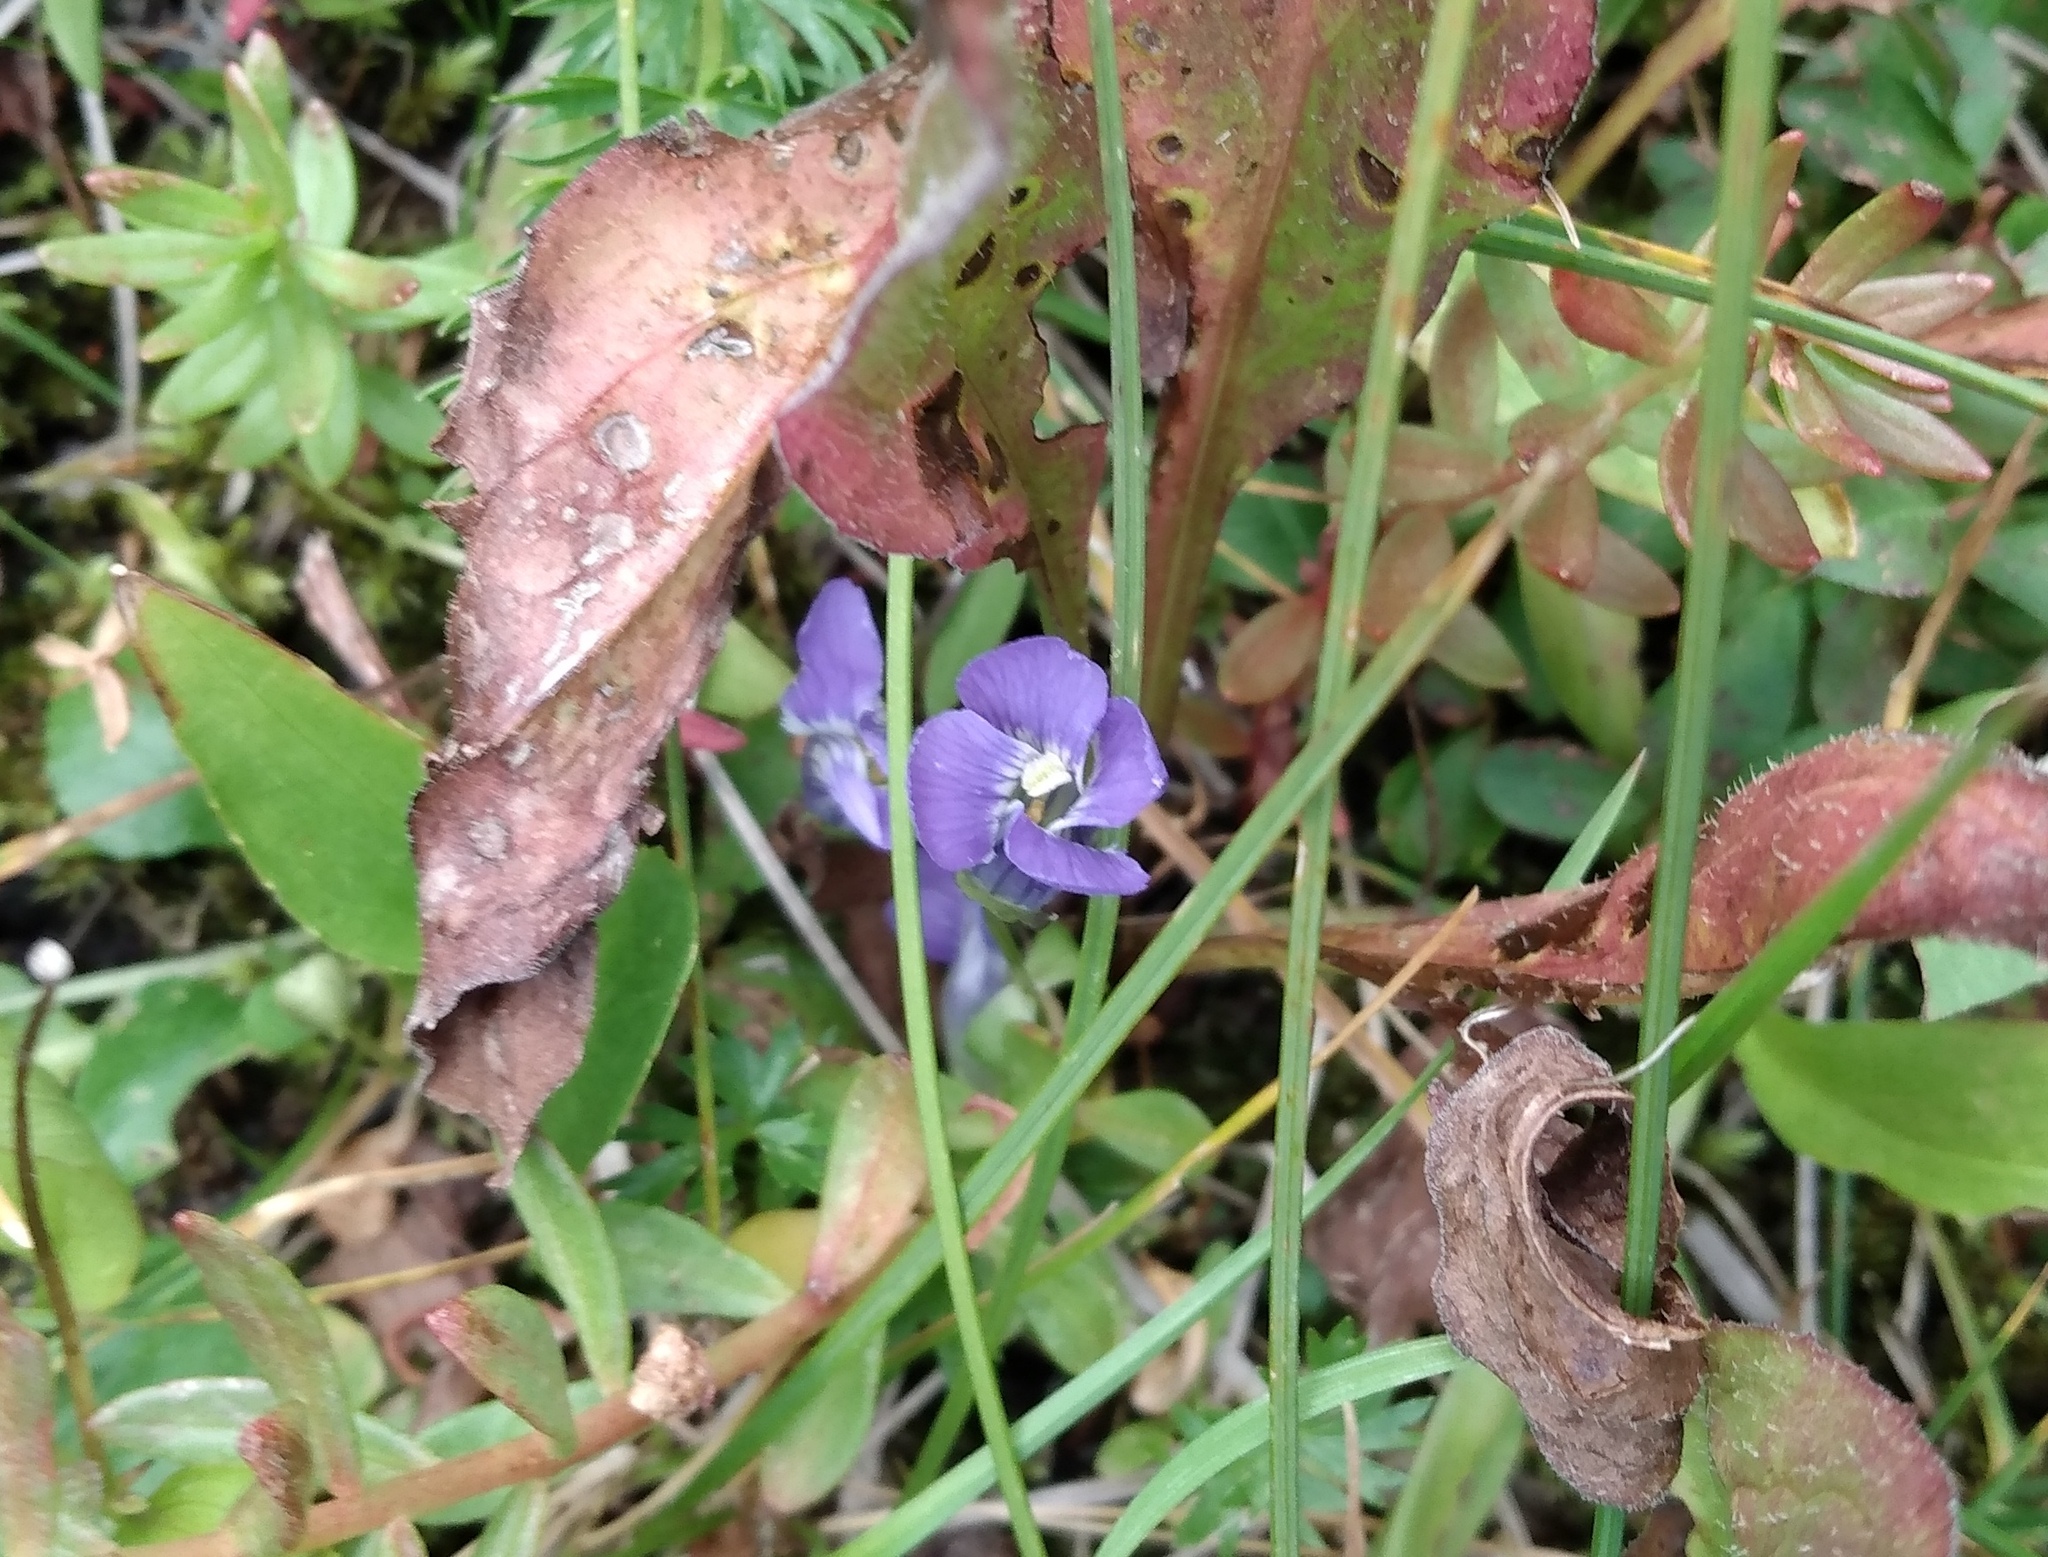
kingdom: Plantae
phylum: Tracheophyta
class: Magnoliopsida
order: Gentianales
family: Gentianaceae
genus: Gentianopsis
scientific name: Gentianopsis thermalis
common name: Rocky mountain fringed-gentian
